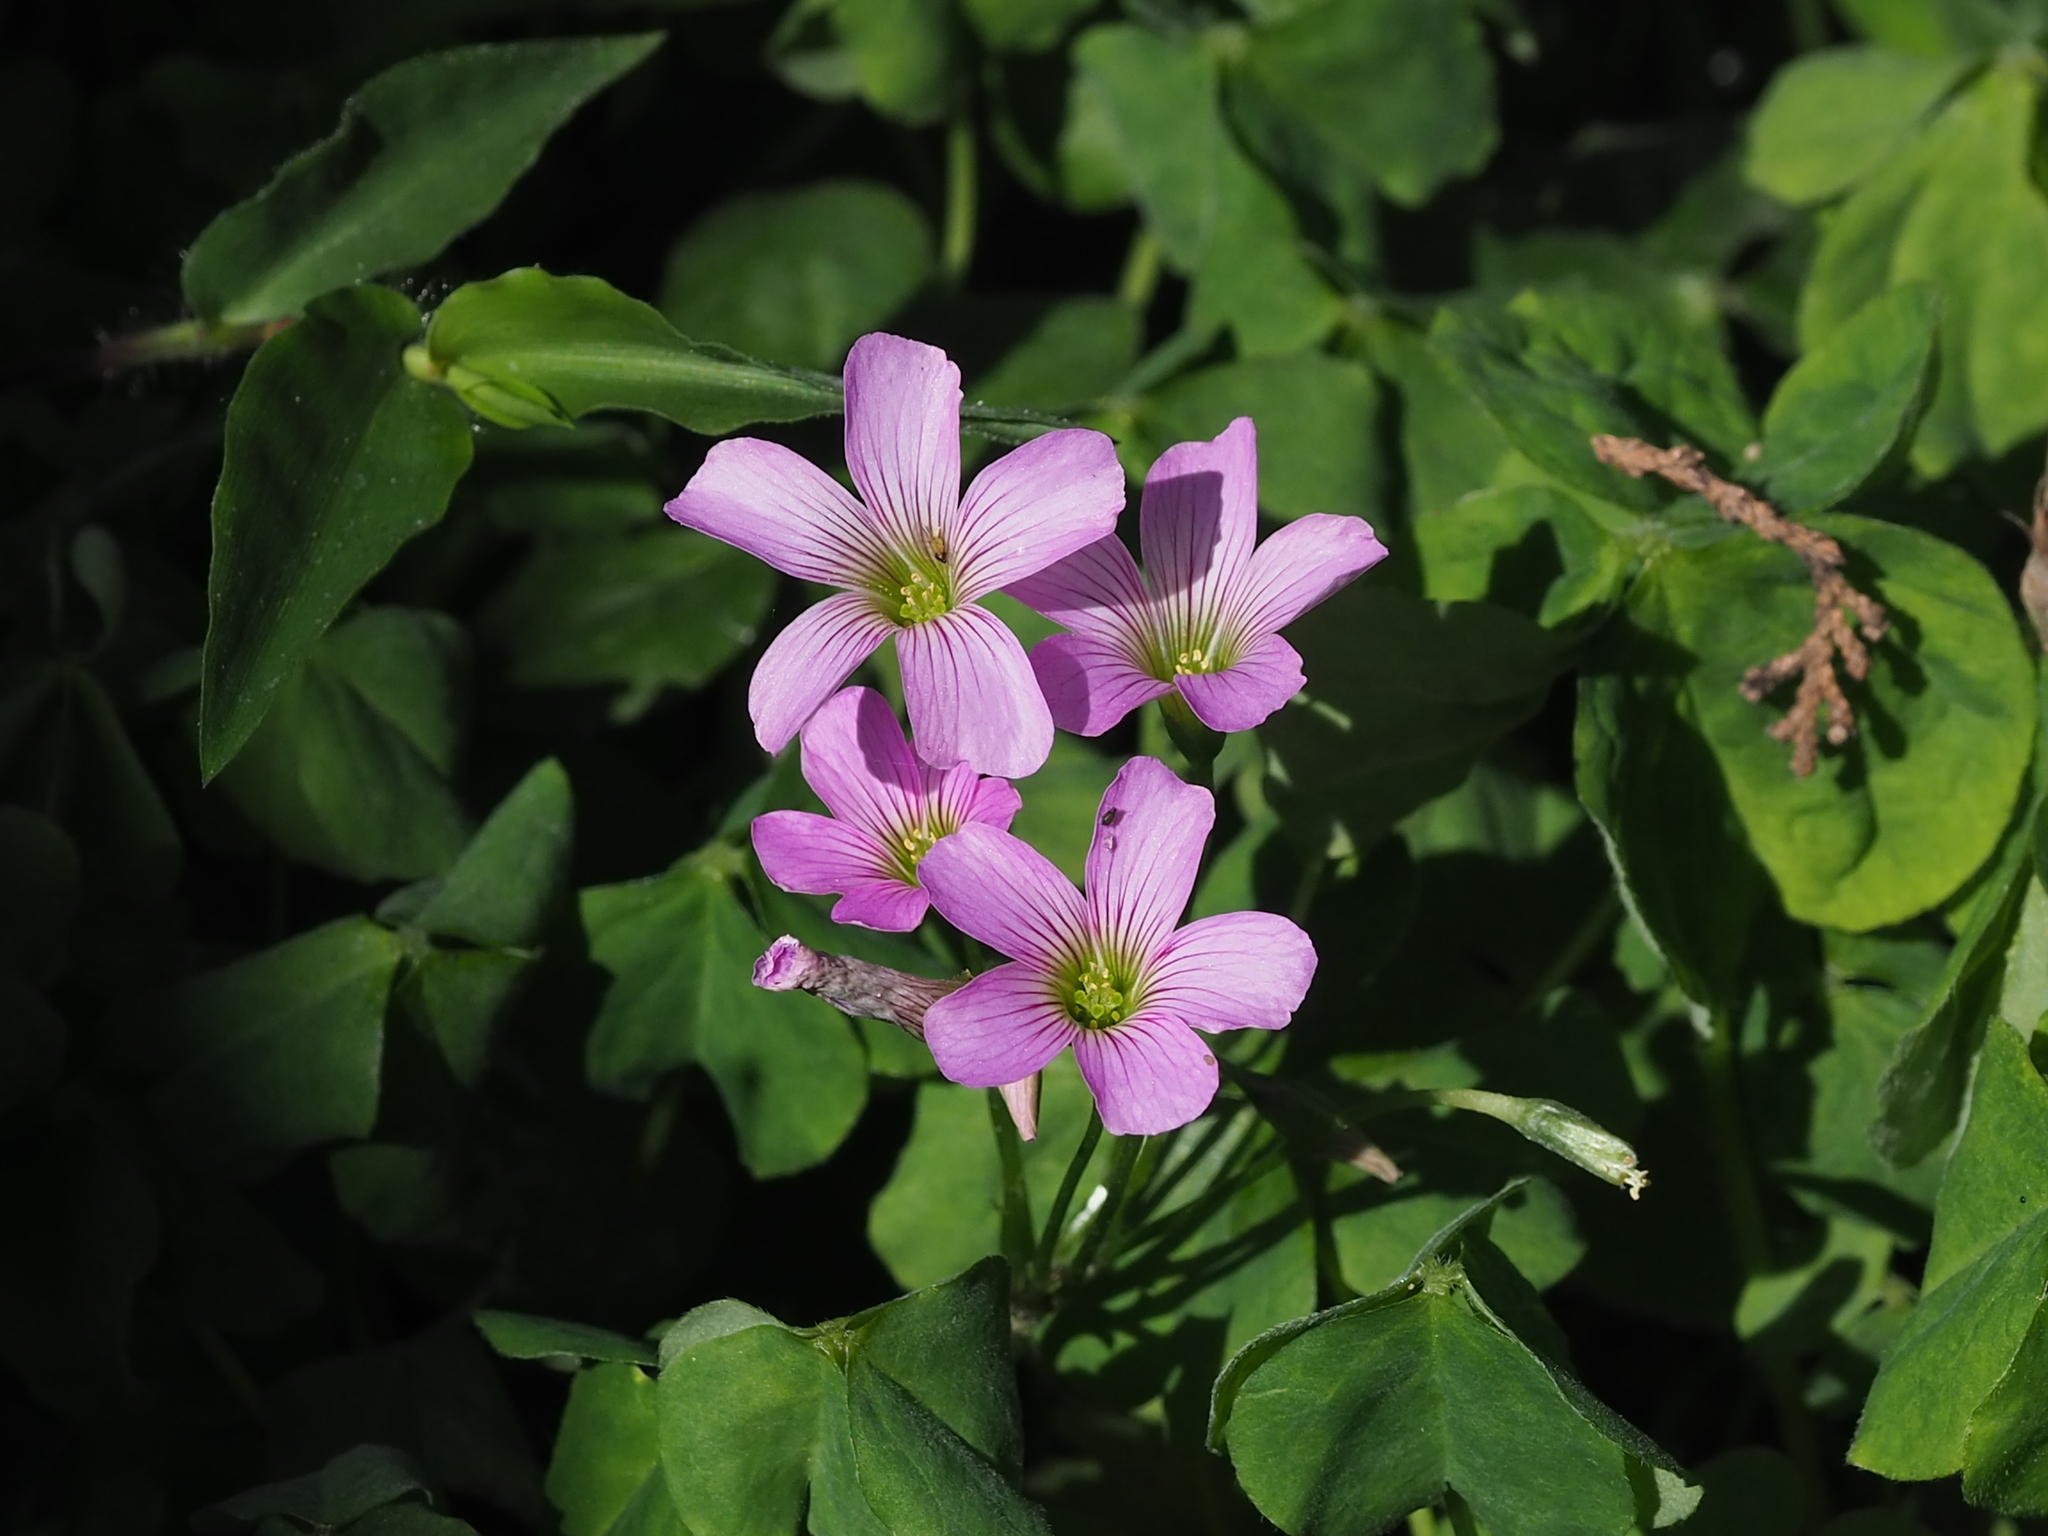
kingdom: Plantae
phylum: Tracheophyta
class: Magnoliopsida
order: Oxalidales
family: Oxalidaceae
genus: Oxalis
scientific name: Oxalis debilis
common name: Large-flowered pink-sorrel
